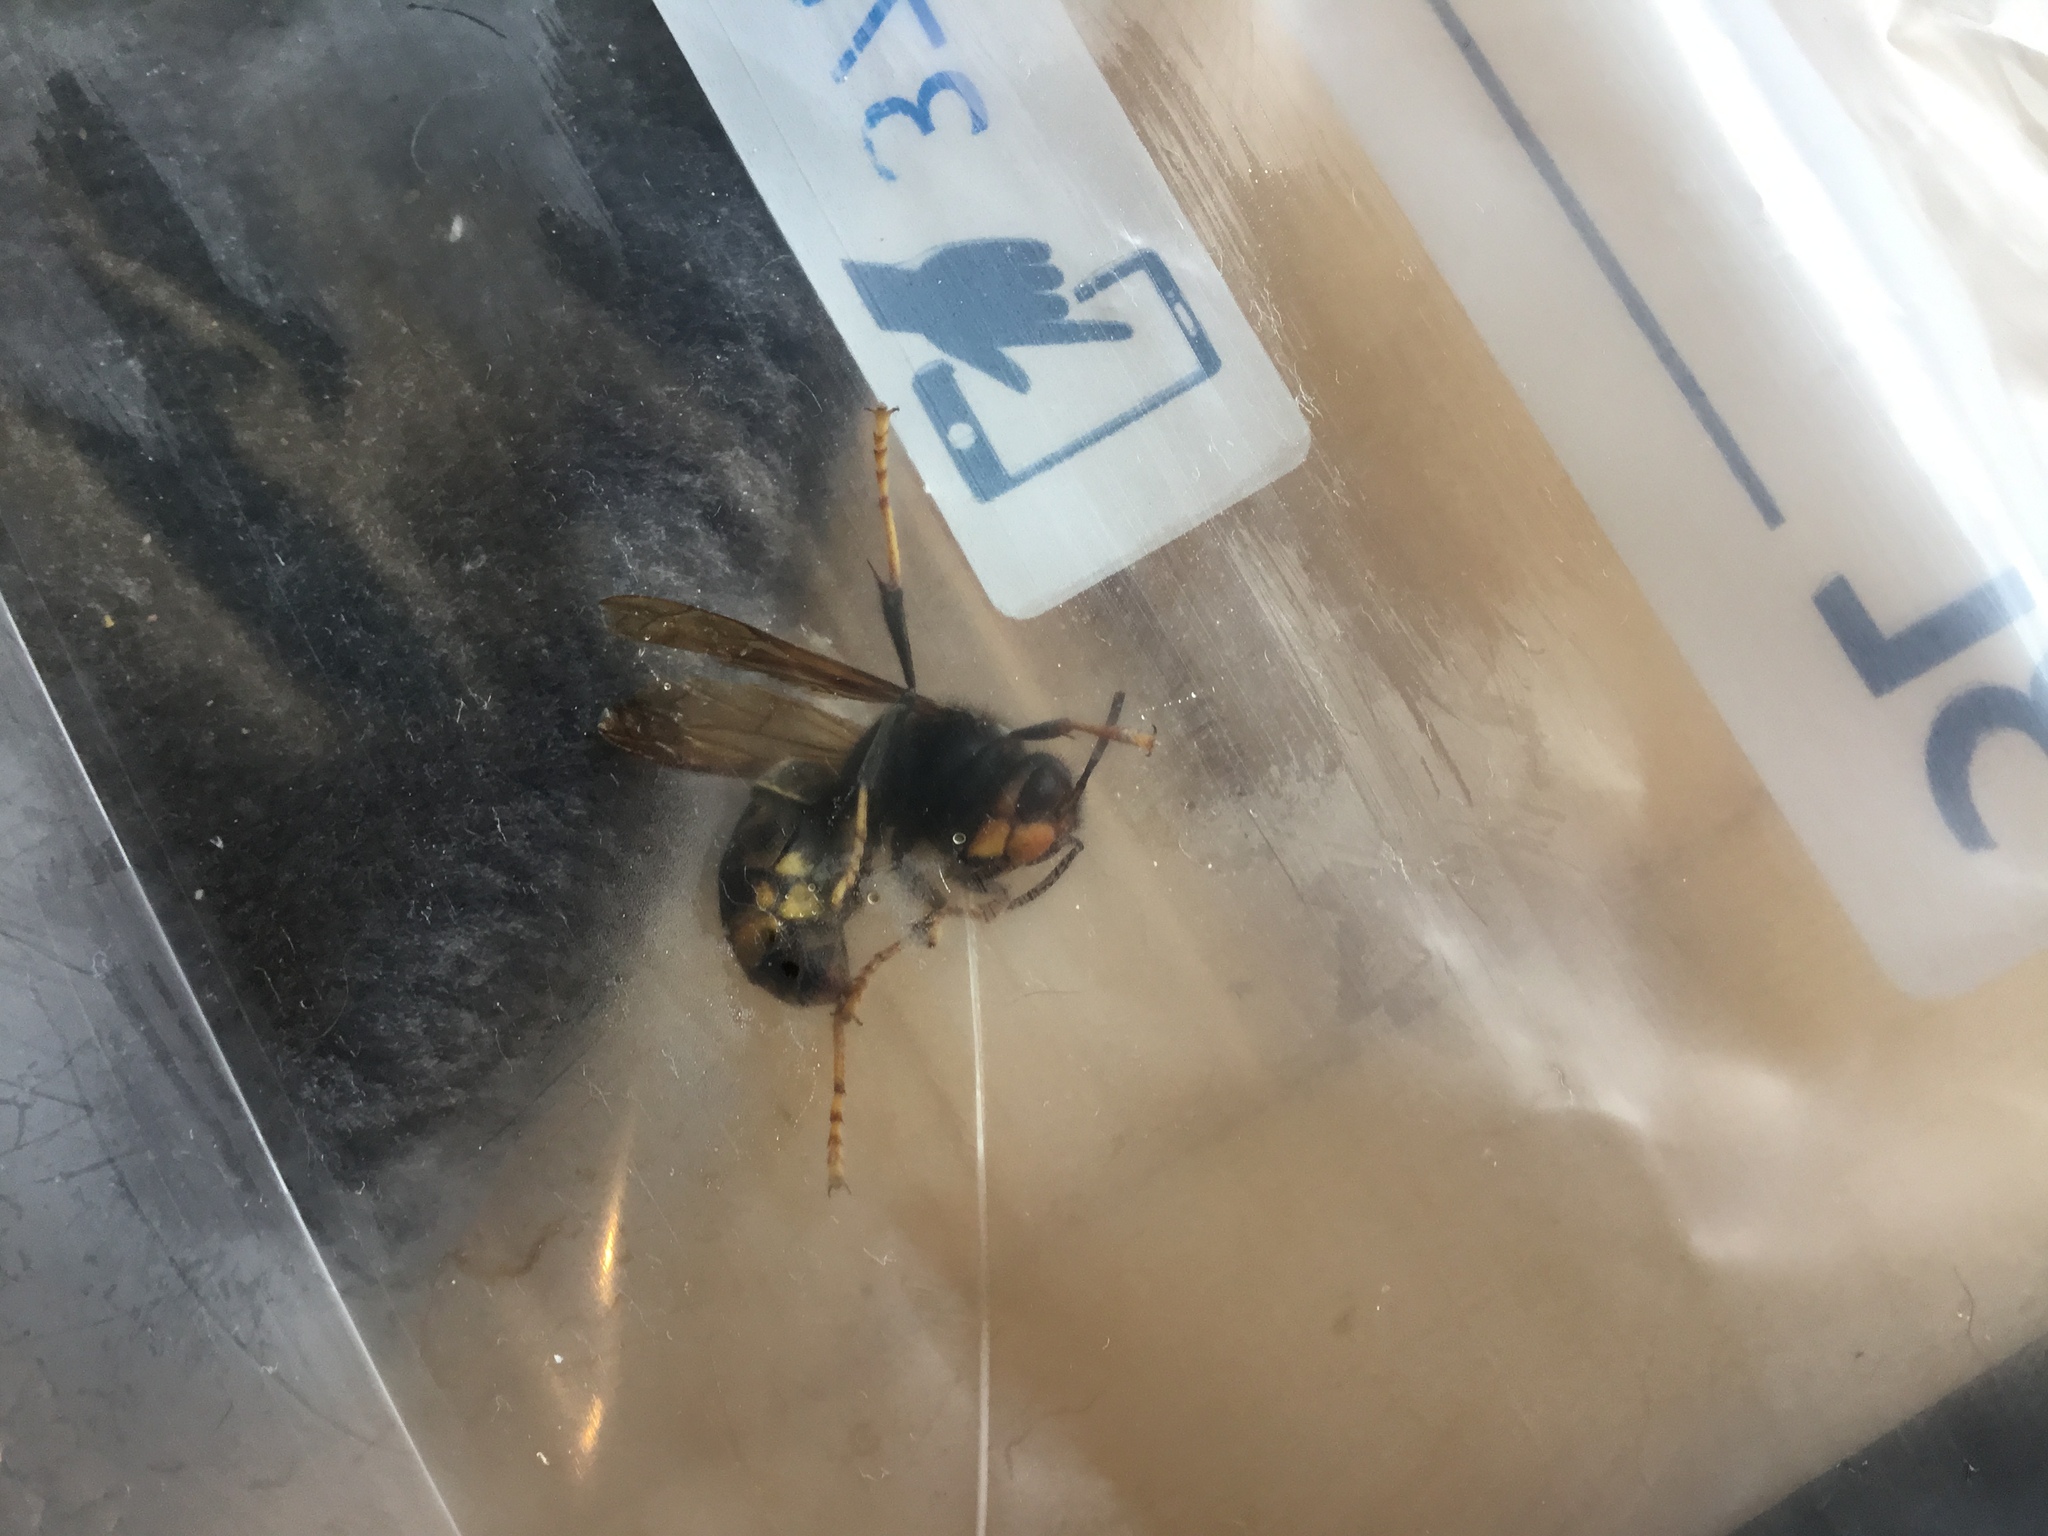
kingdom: Animalia
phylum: Arthropoda
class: Insecta
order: Hymenoptera
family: Vespidae
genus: Vespa
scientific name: Vespa velutina
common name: Asian hornet
